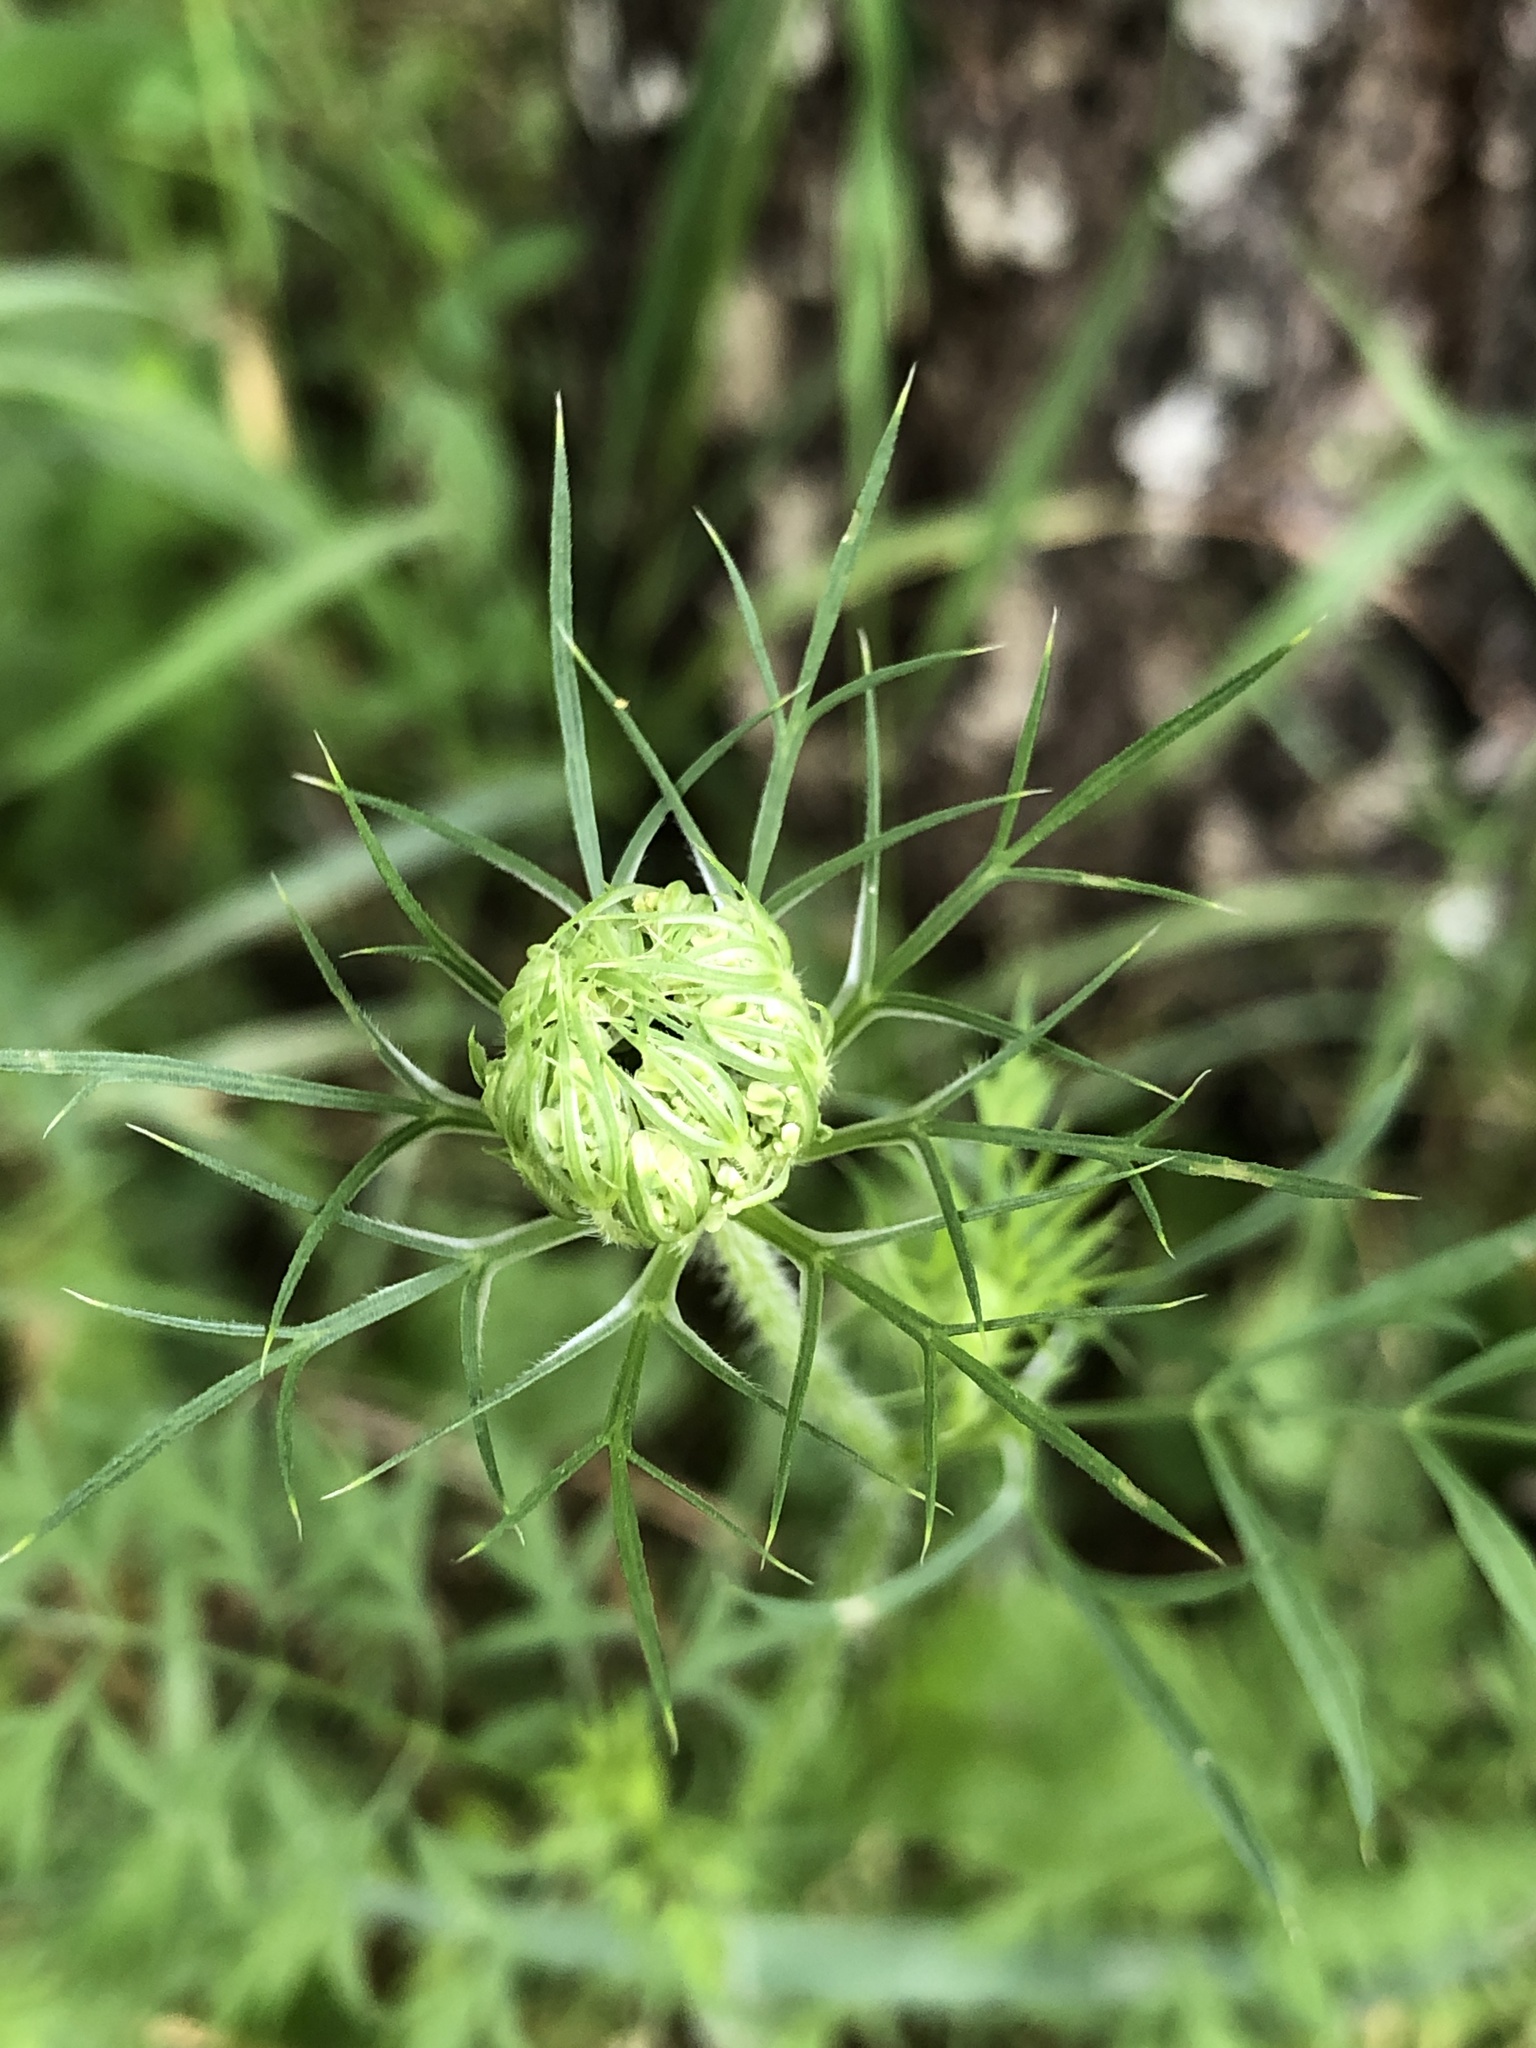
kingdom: Plantae
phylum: Tracheophyta
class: Magnoliopsida
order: Apiales
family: Apiaceae
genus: Daucus
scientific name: Daucus carota
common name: Wild carrot
